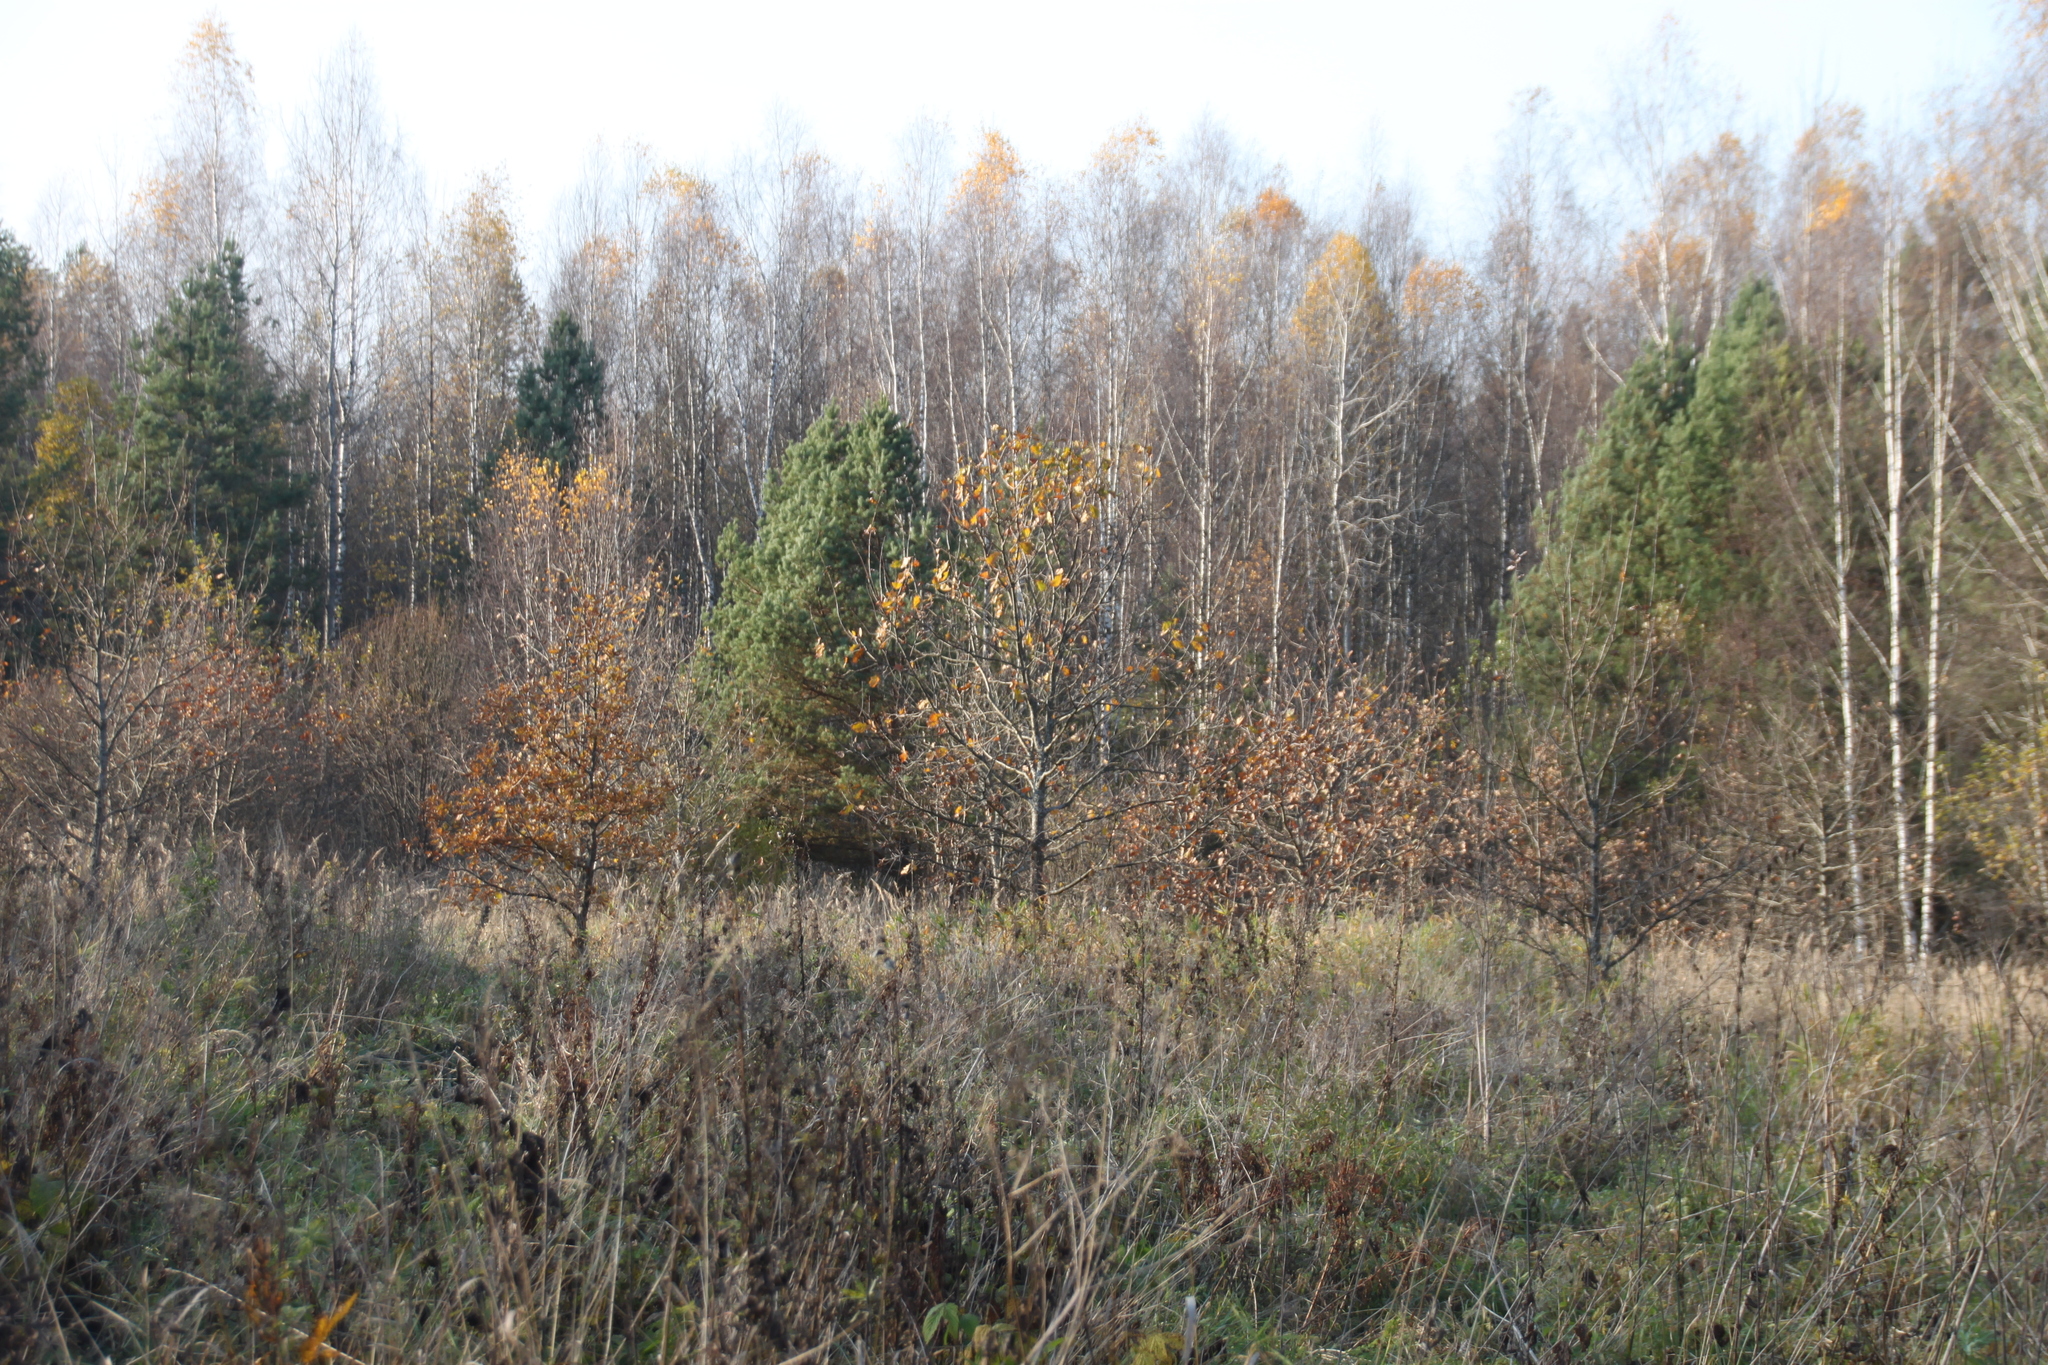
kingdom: Plantae
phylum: Tracheophyta
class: Magnoliopsida
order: Fagales
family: Fagaceae
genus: Quercus
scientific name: Quercus robur
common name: Pedunculate oak
